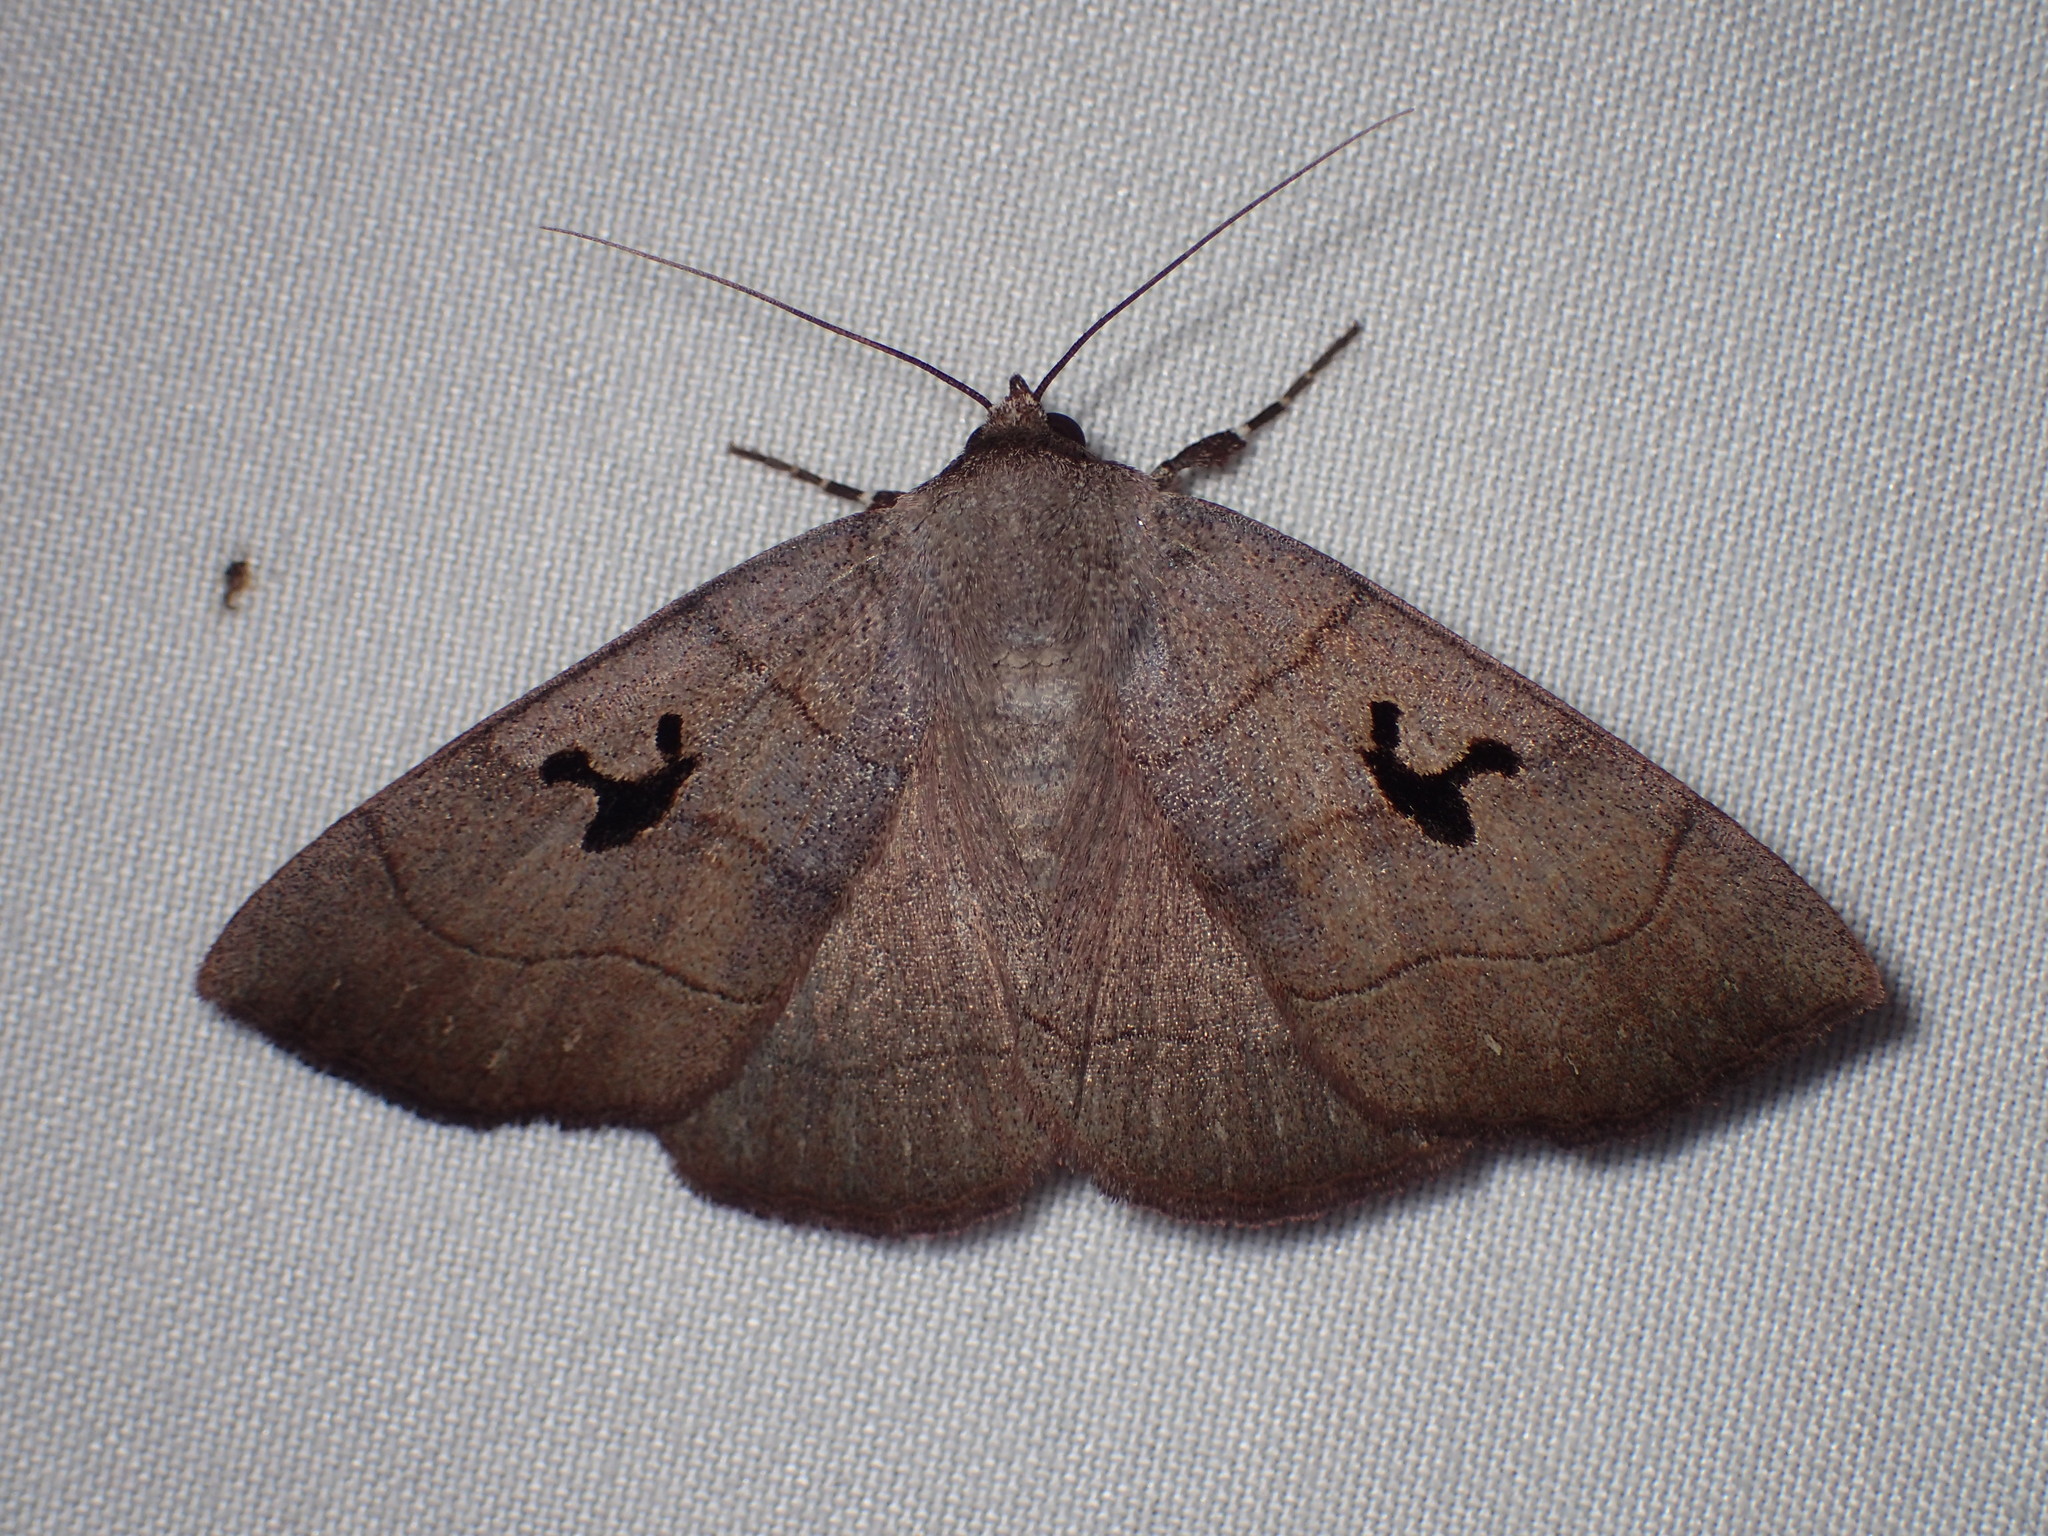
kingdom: Animalia
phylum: Arthropoda
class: Insecta
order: Lepidoptera
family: Erebidae
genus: Panopoda
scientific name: Panopoda carneicosta
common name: Brown panopoda moth
